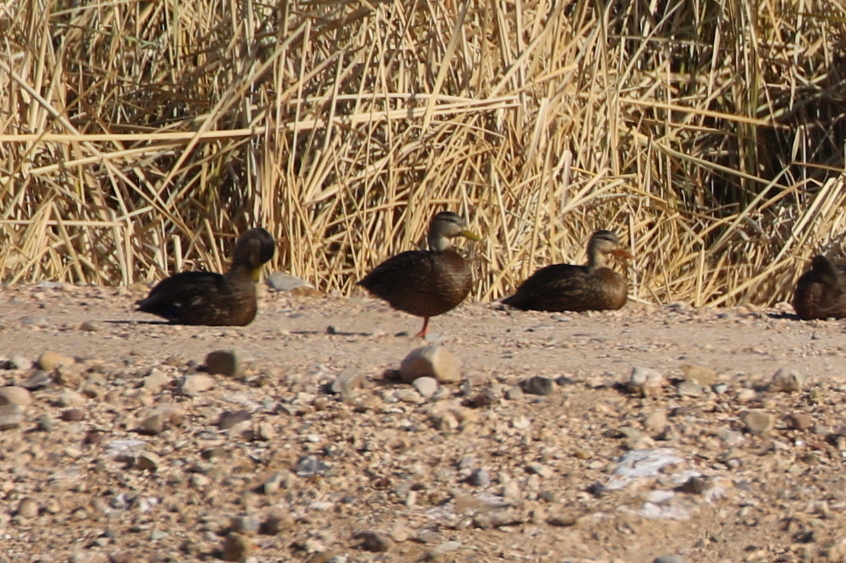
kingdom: Animalia
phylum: Chordata
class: Aves
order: Anseriformes
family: Anatidae
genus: Anas
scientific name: Anas diazi
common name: Mexican duck
